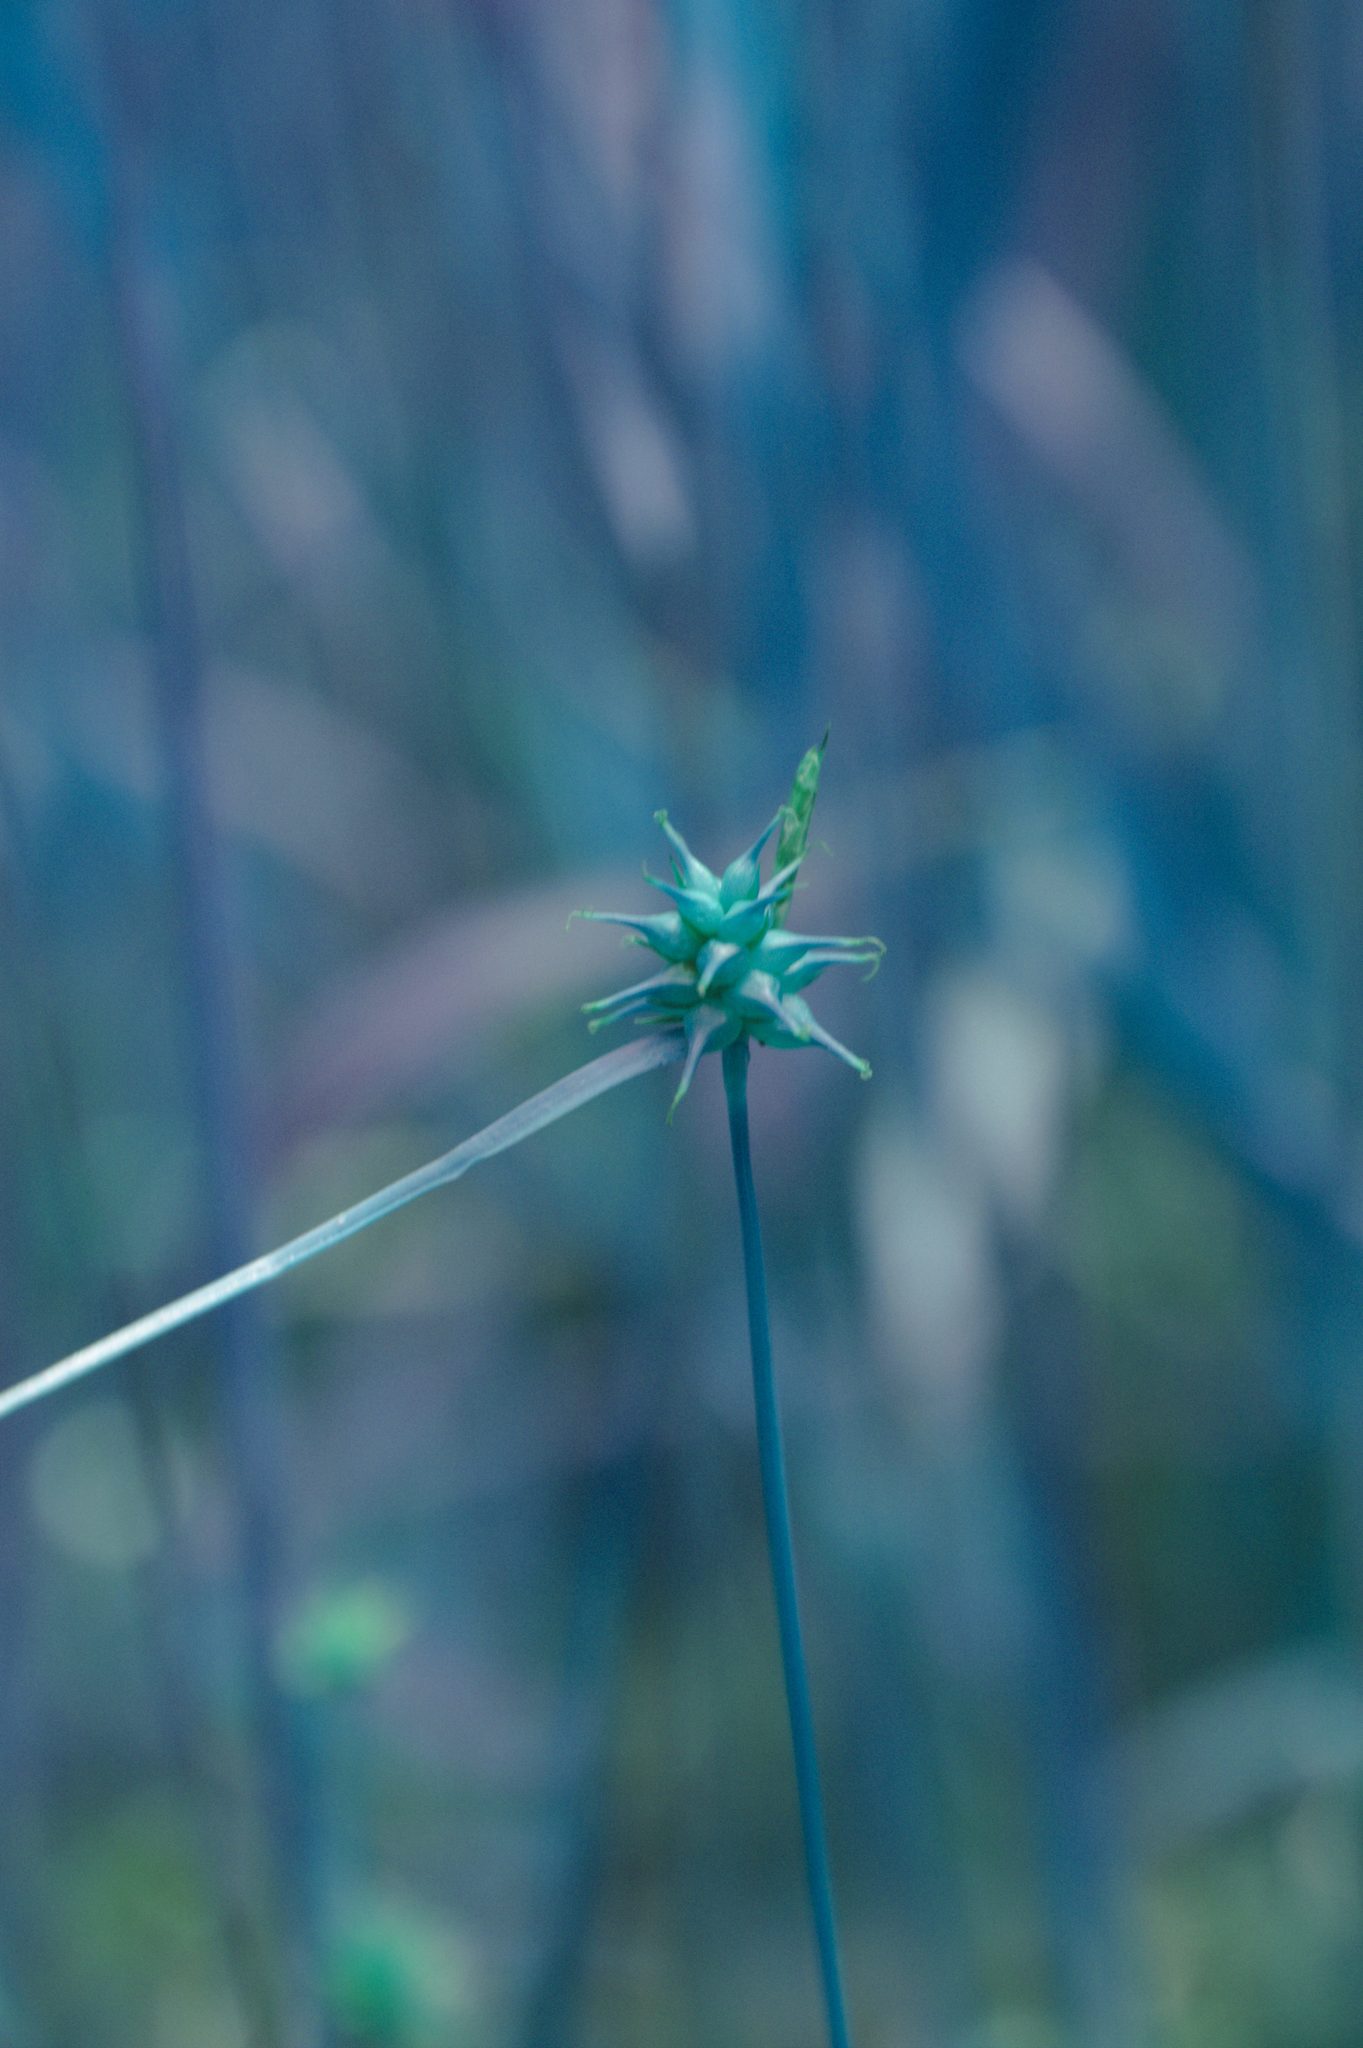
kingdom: Plantae
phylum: Tracheophyta
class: Liliopsida
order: Poales
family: Cyperaceae
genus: Carex
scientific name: Carex flava
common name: Large yellow-sedge
